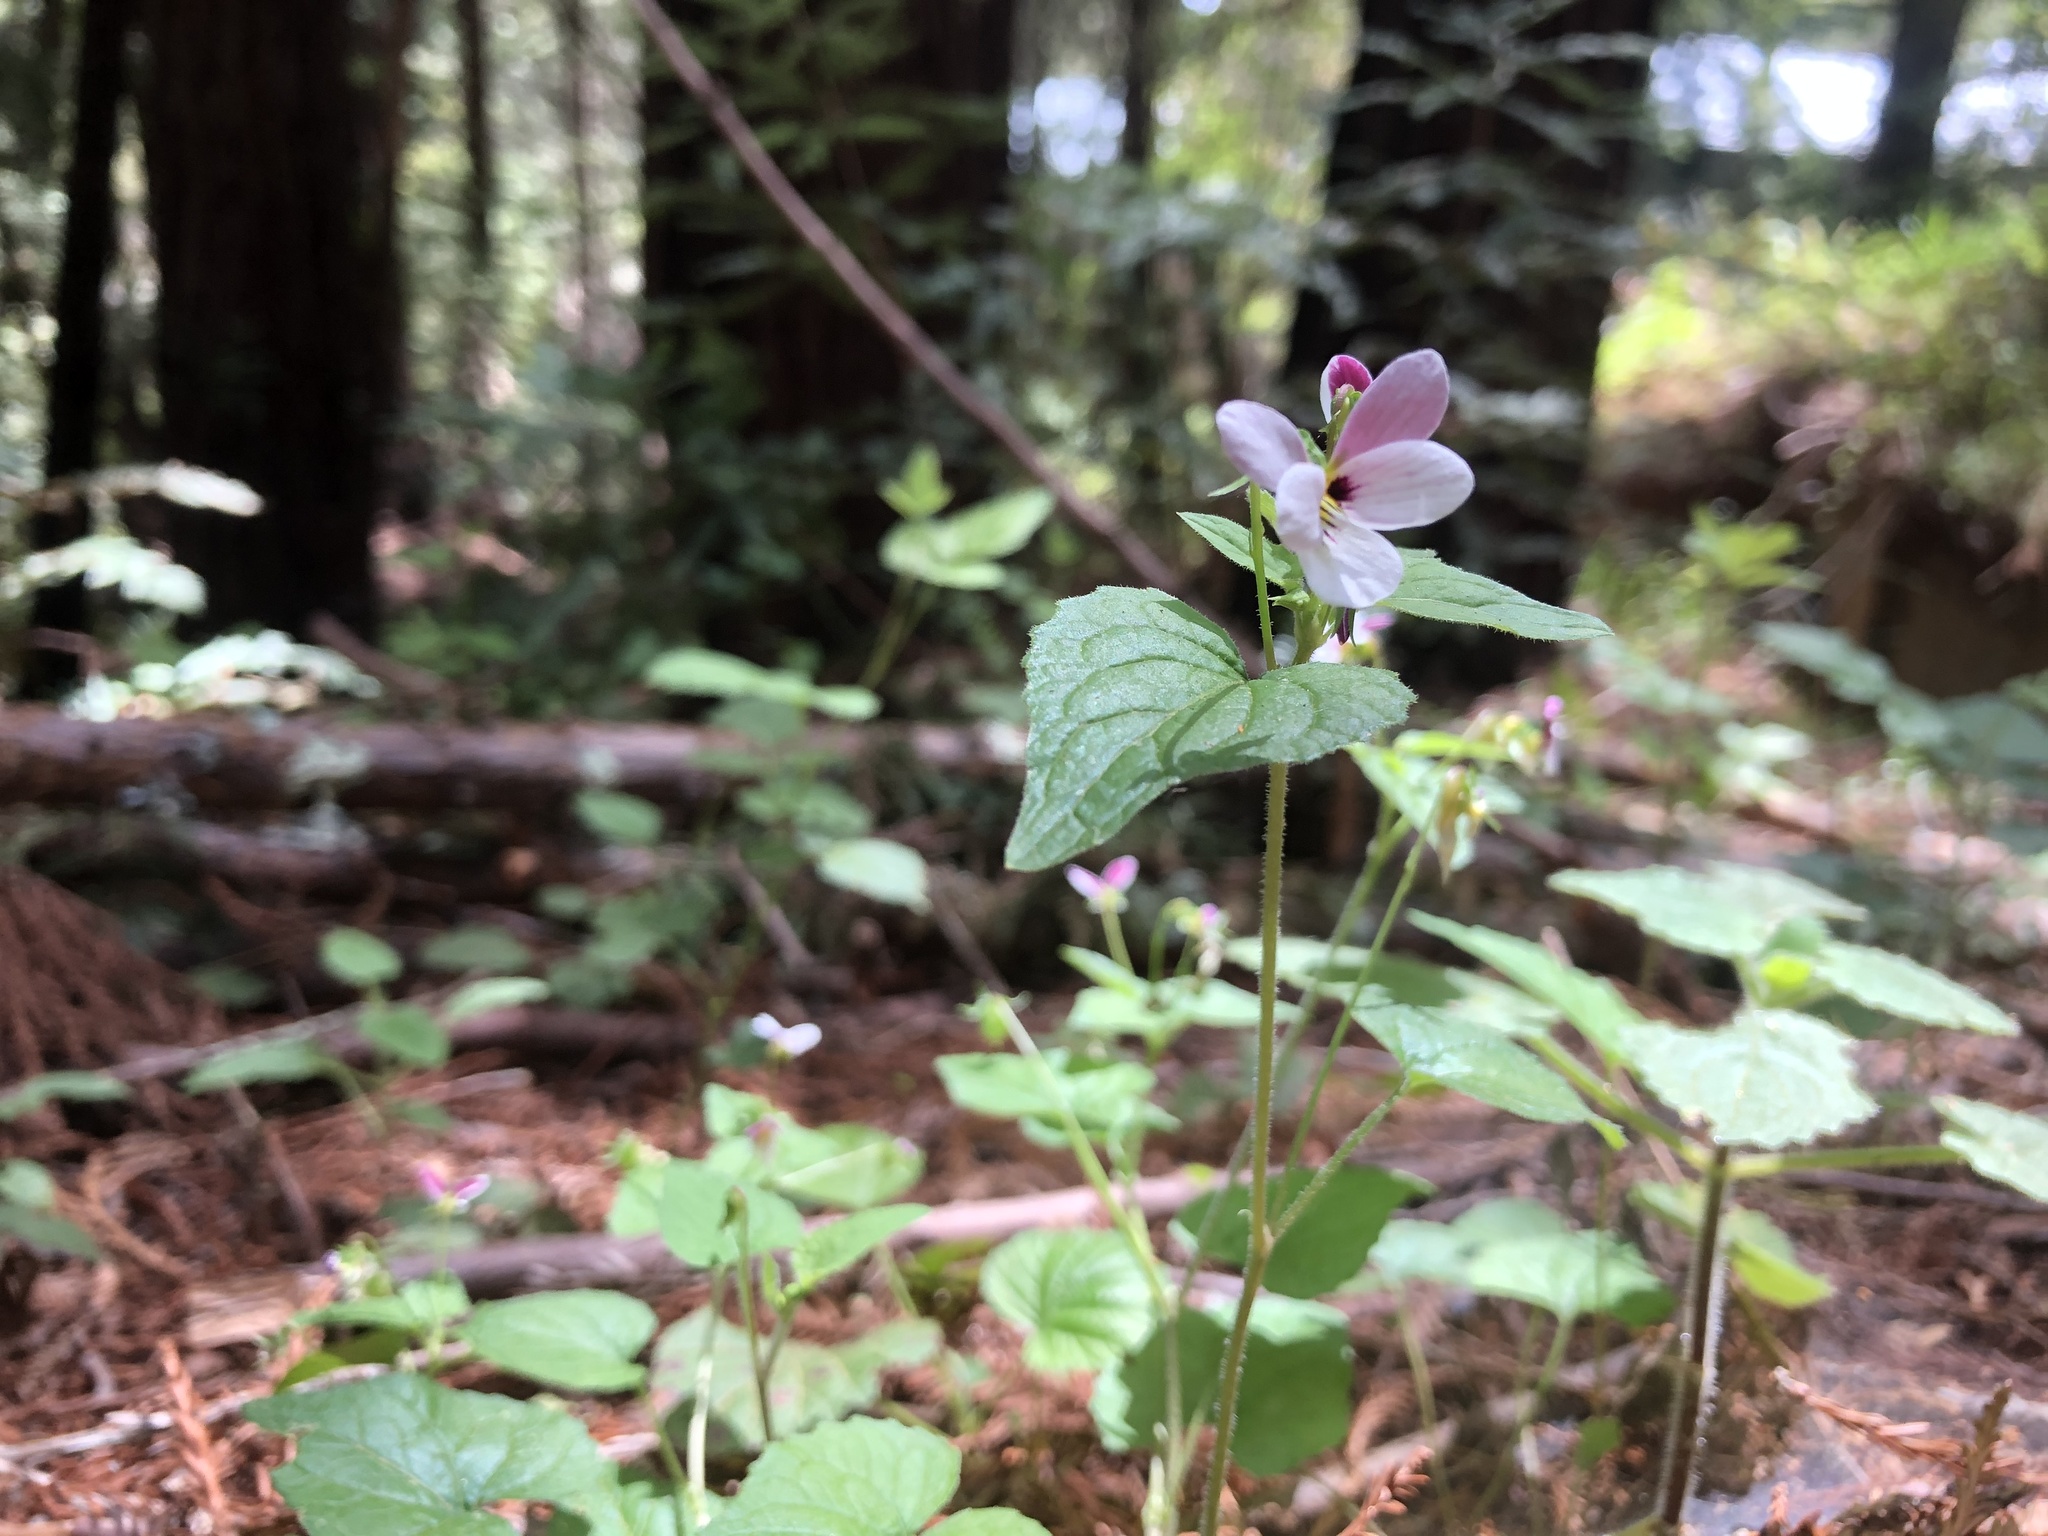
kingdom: Plantae
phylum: Tracheophyta
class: Magnoliopsida
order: Malpighiales
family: Violaceae
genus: Viola
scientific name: Viola ocellata
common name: Western heart's ease
